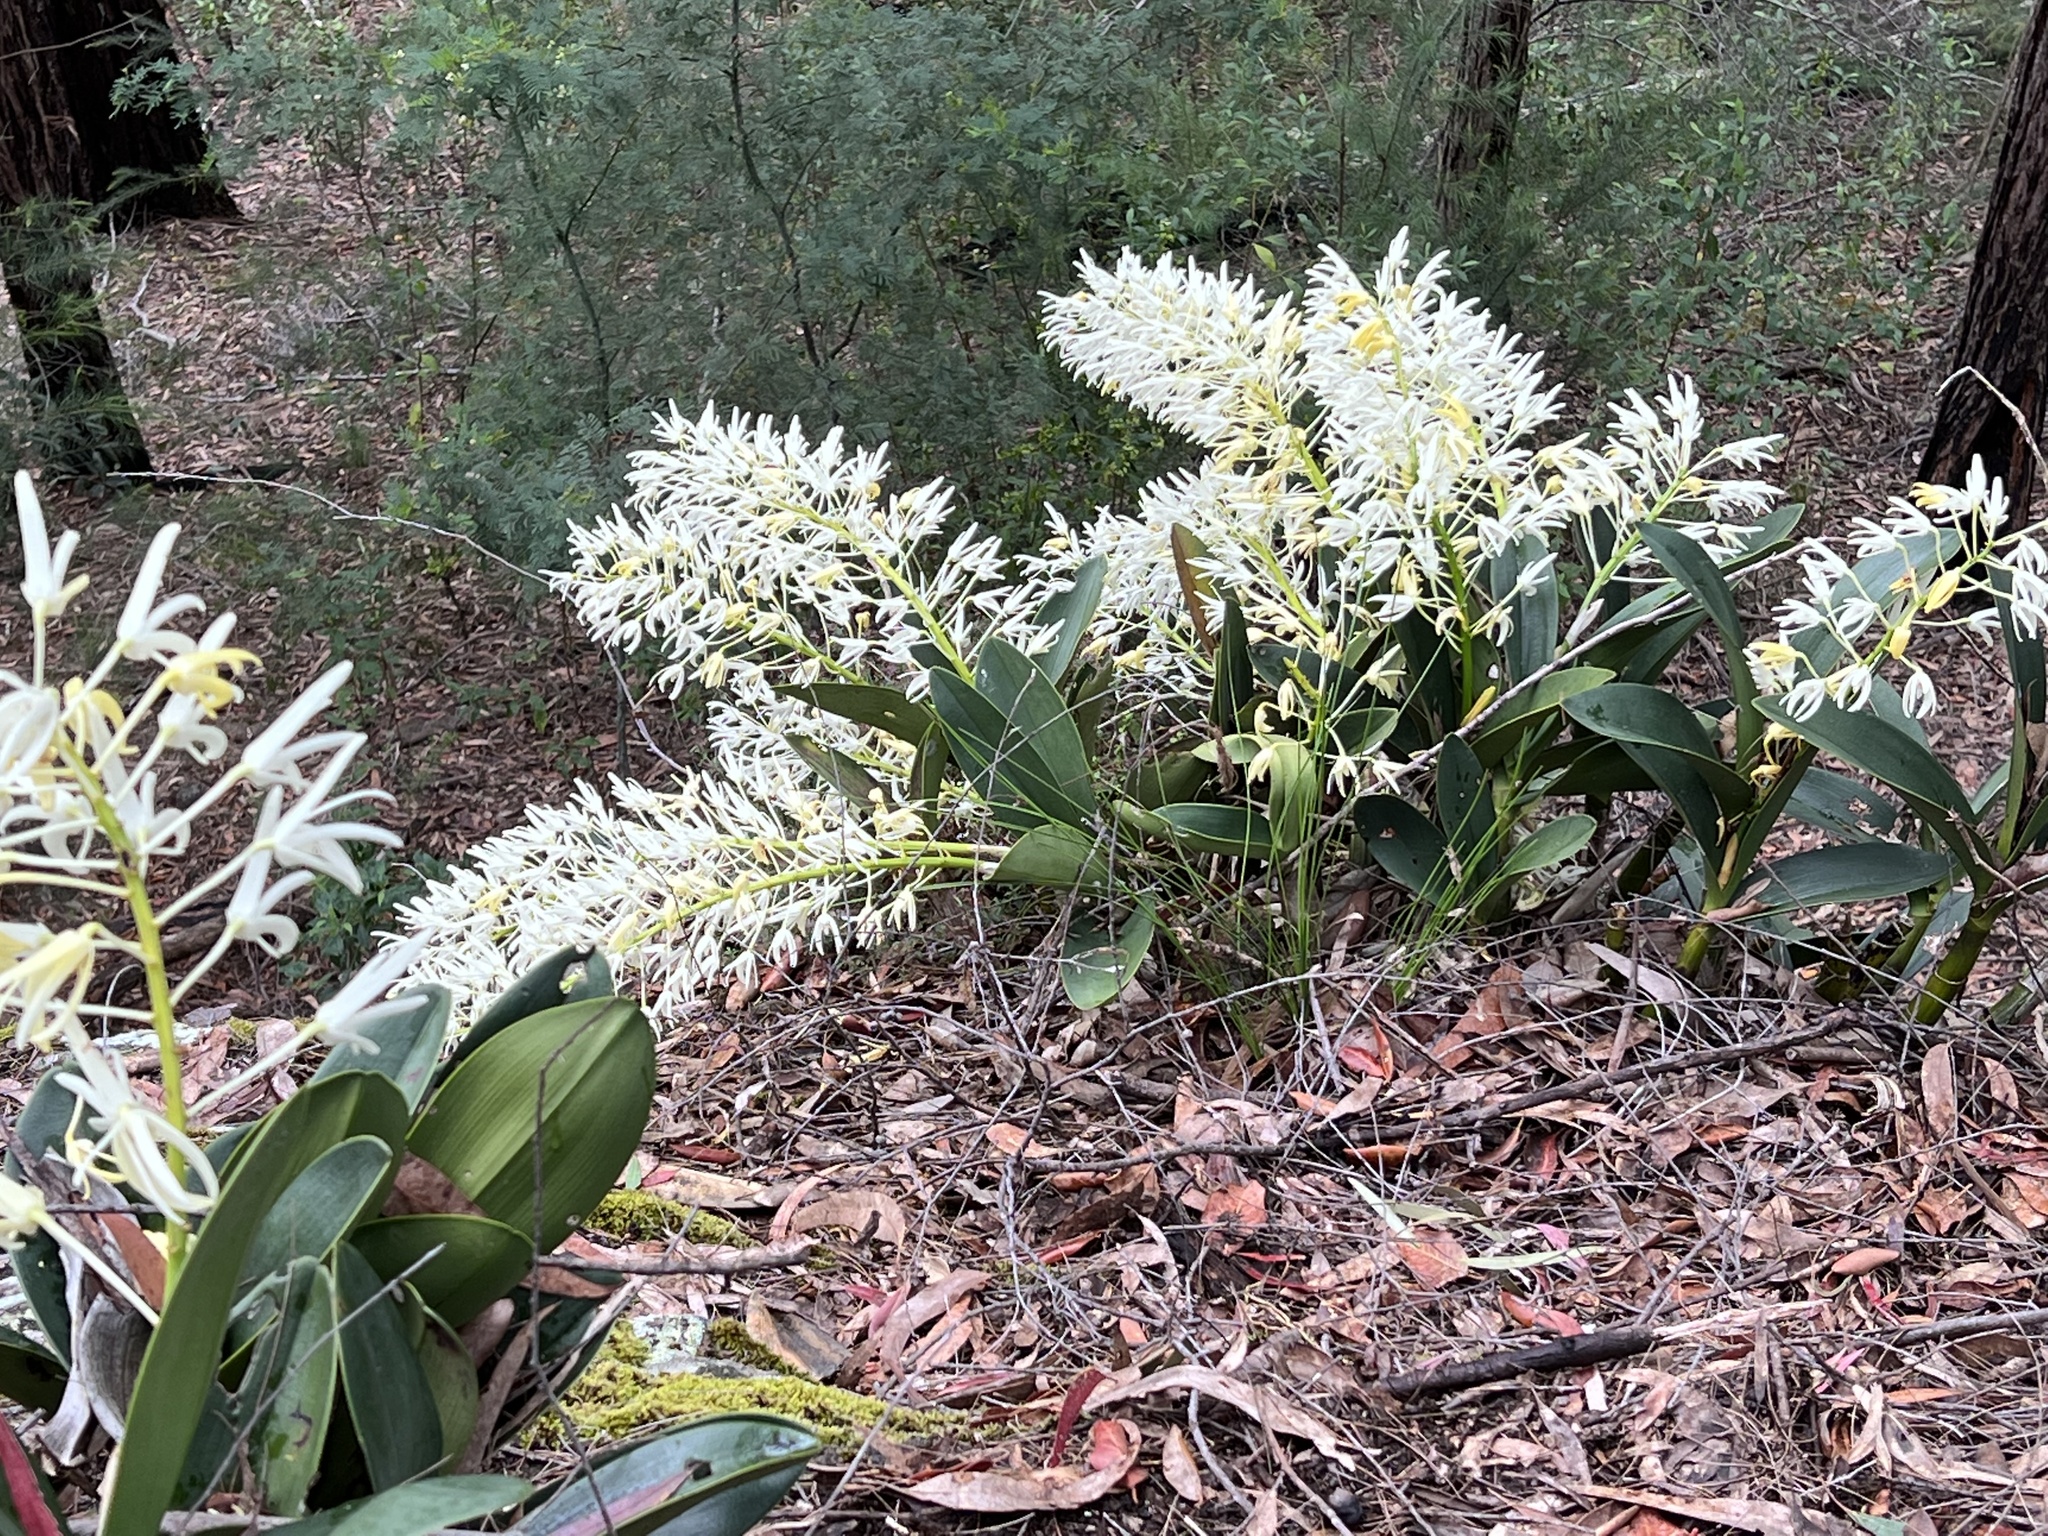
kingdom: Plantae
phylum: Tracheophyta
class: Liliopsida
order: Asparagales
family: Orchidaceae
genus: Dendrobium
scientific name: Dendrobium speciosum
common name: Rock-lily
